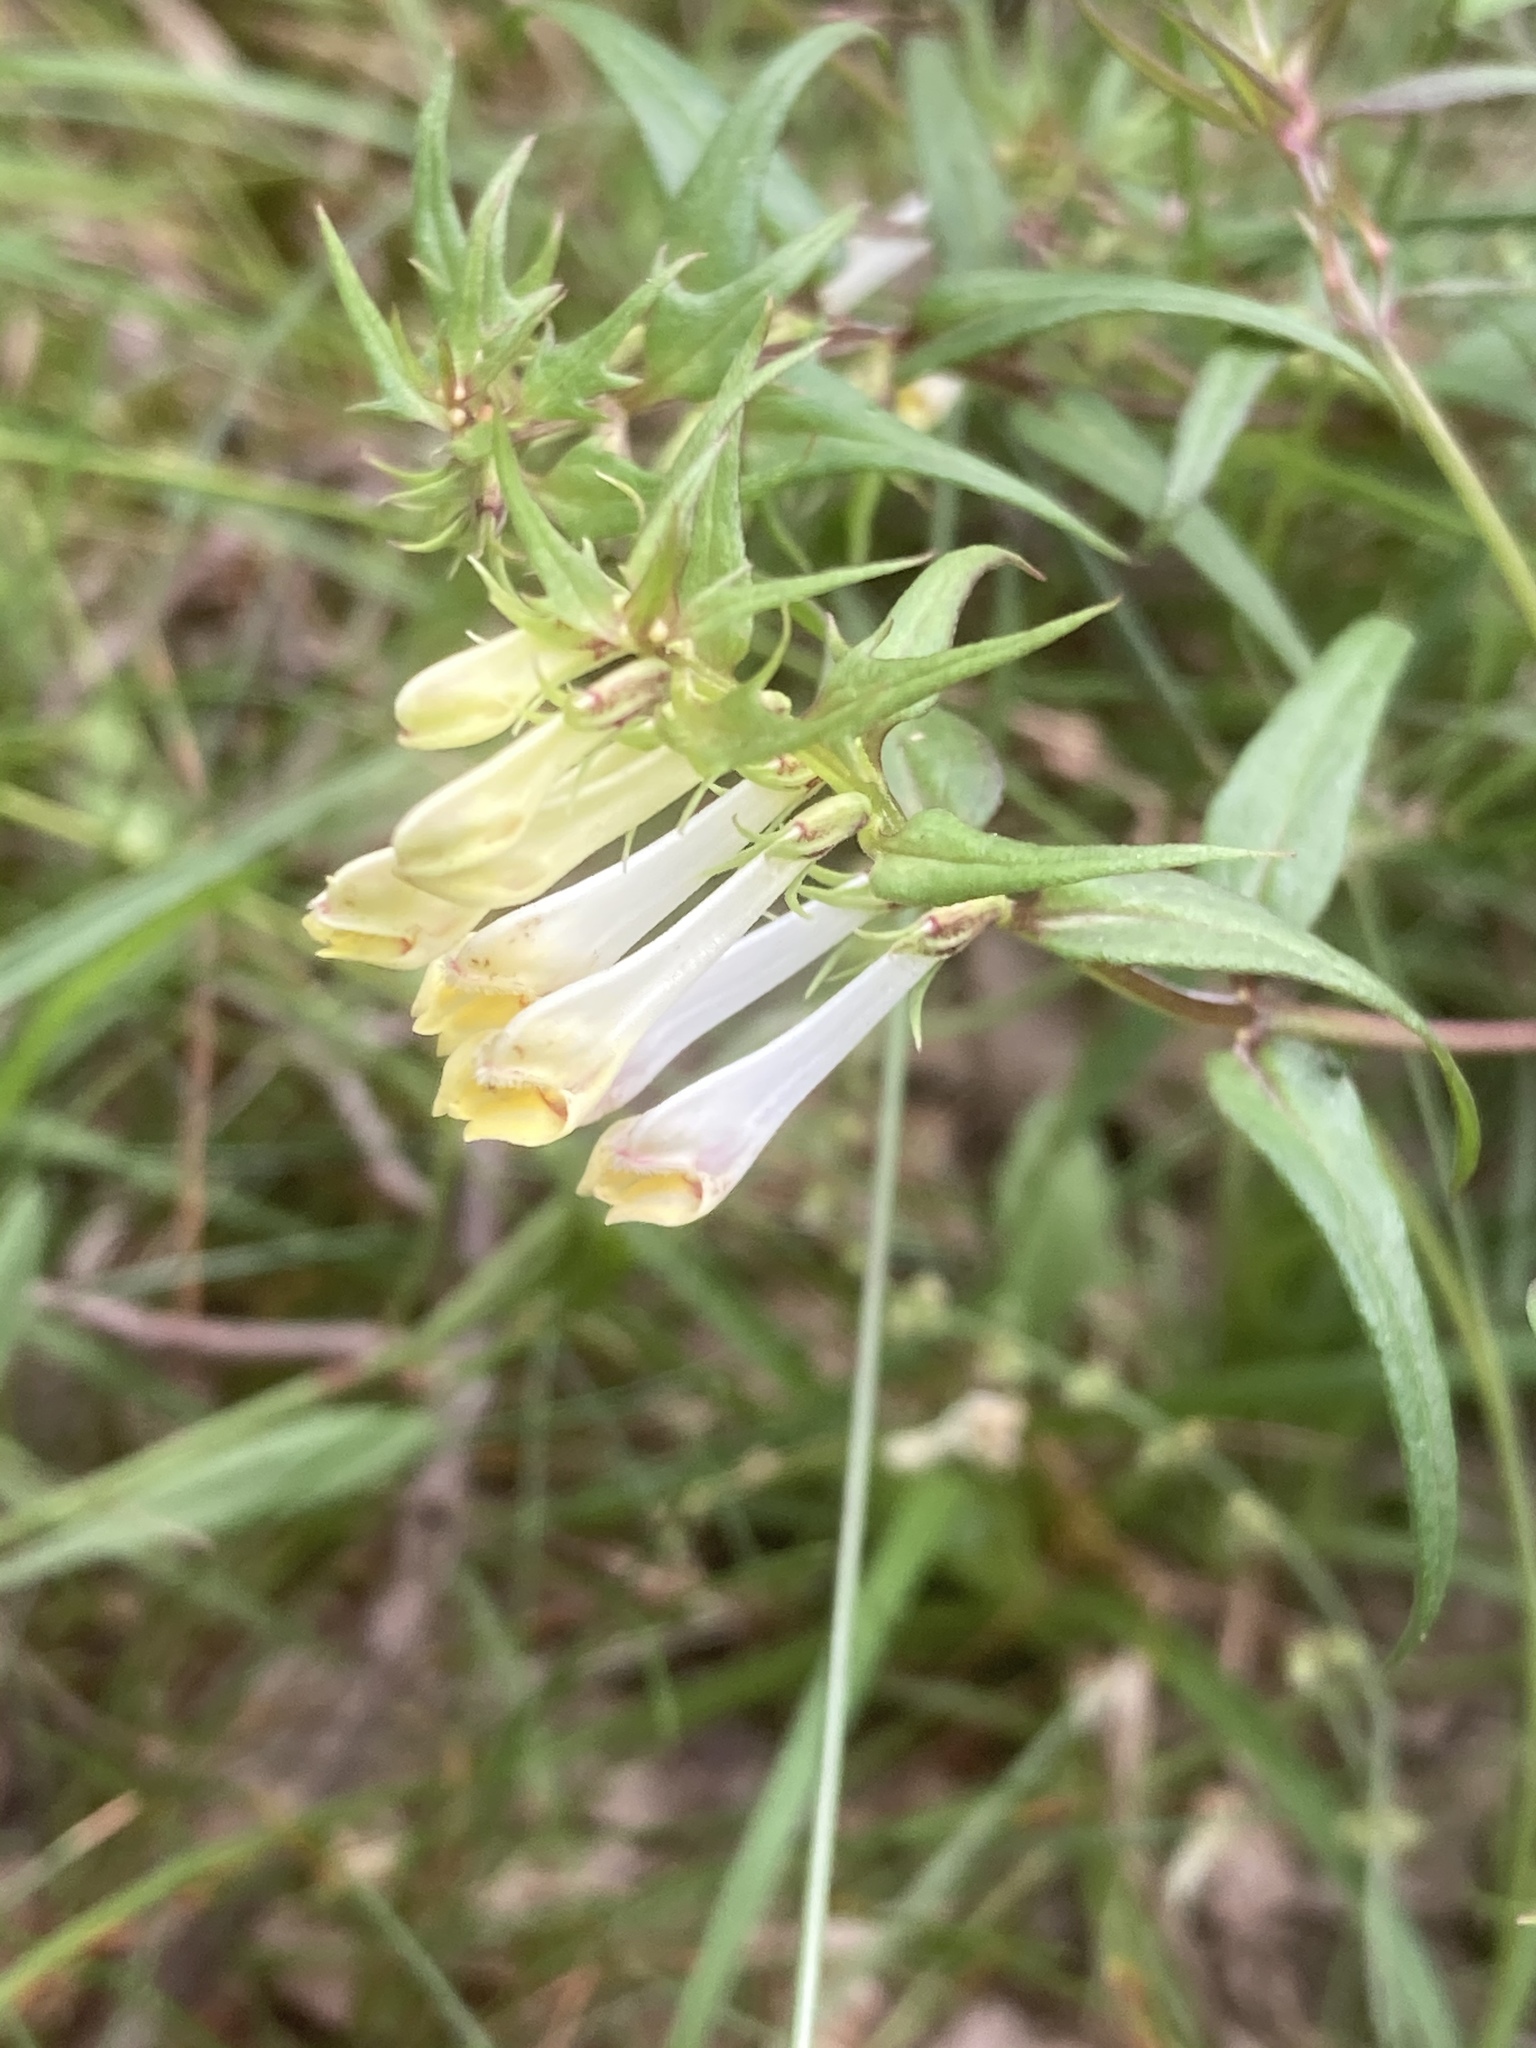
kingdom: Plantae
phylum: Tracheophyta
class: Magnoliopsida
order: Lamiales
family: Orobanchaceae
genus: Melampyrum
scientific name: Melampyrum pratense
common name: Common cow-wheat
